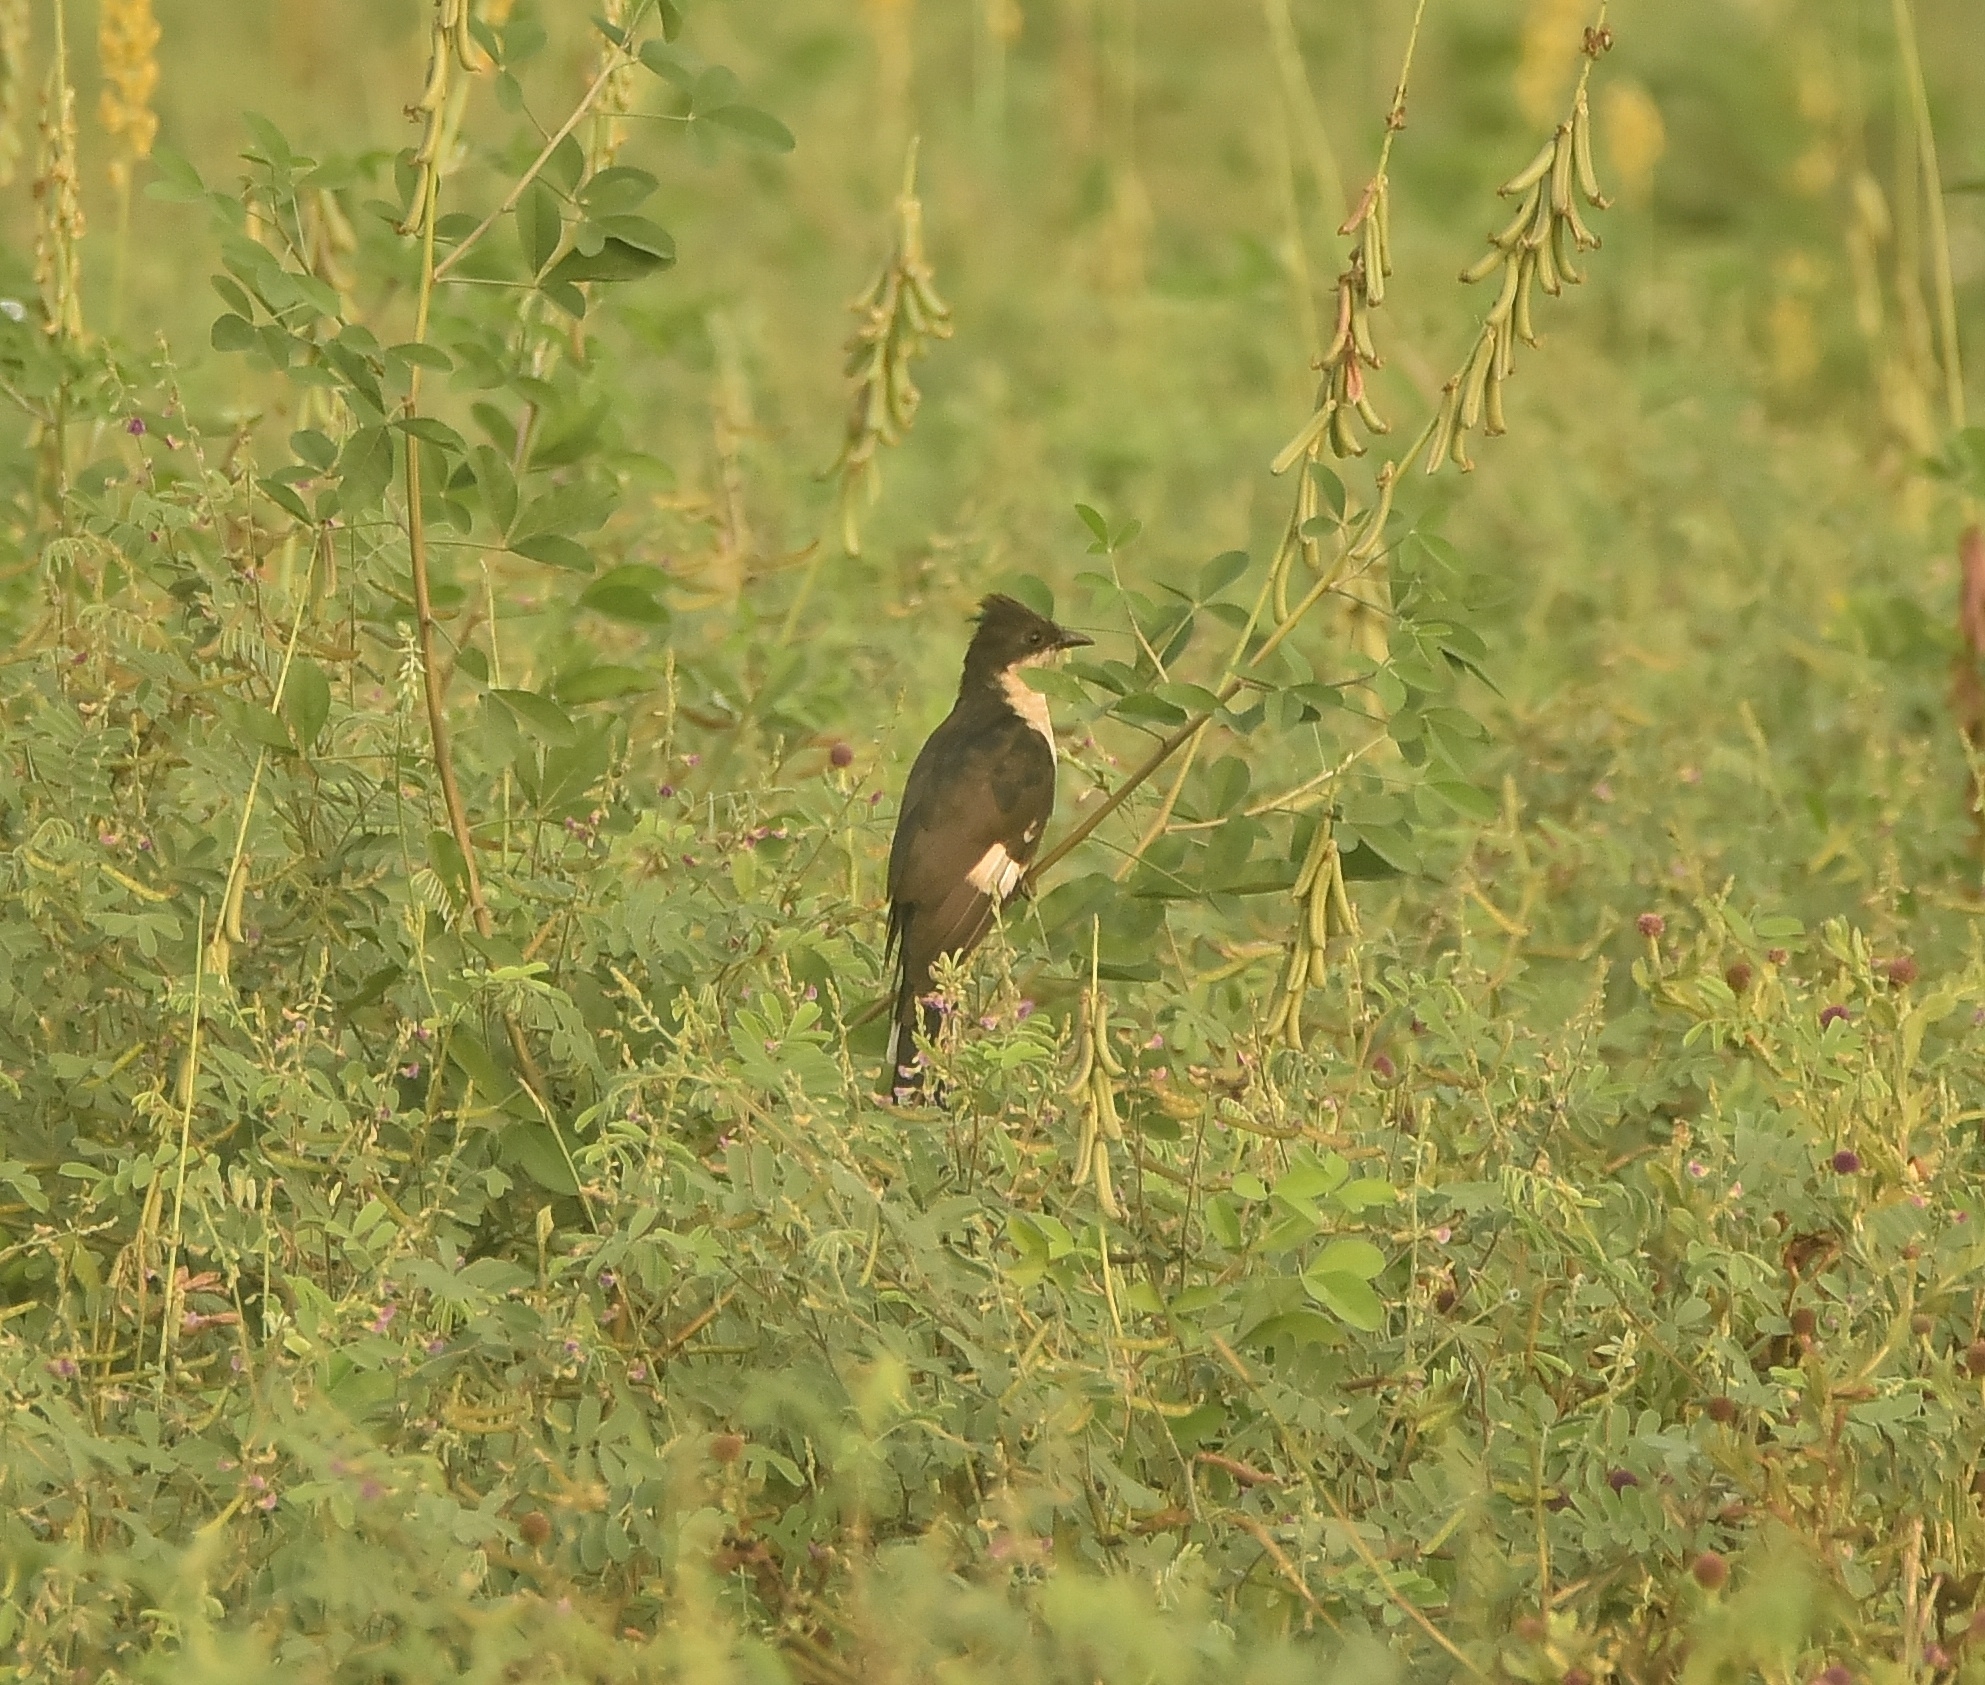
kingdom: Animalia
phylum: Chordata
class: Aves
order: Cuculiformes
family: Cuculidae
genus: Clamator
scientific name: Clamator jacobinus
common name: Jacobin cuckoo
